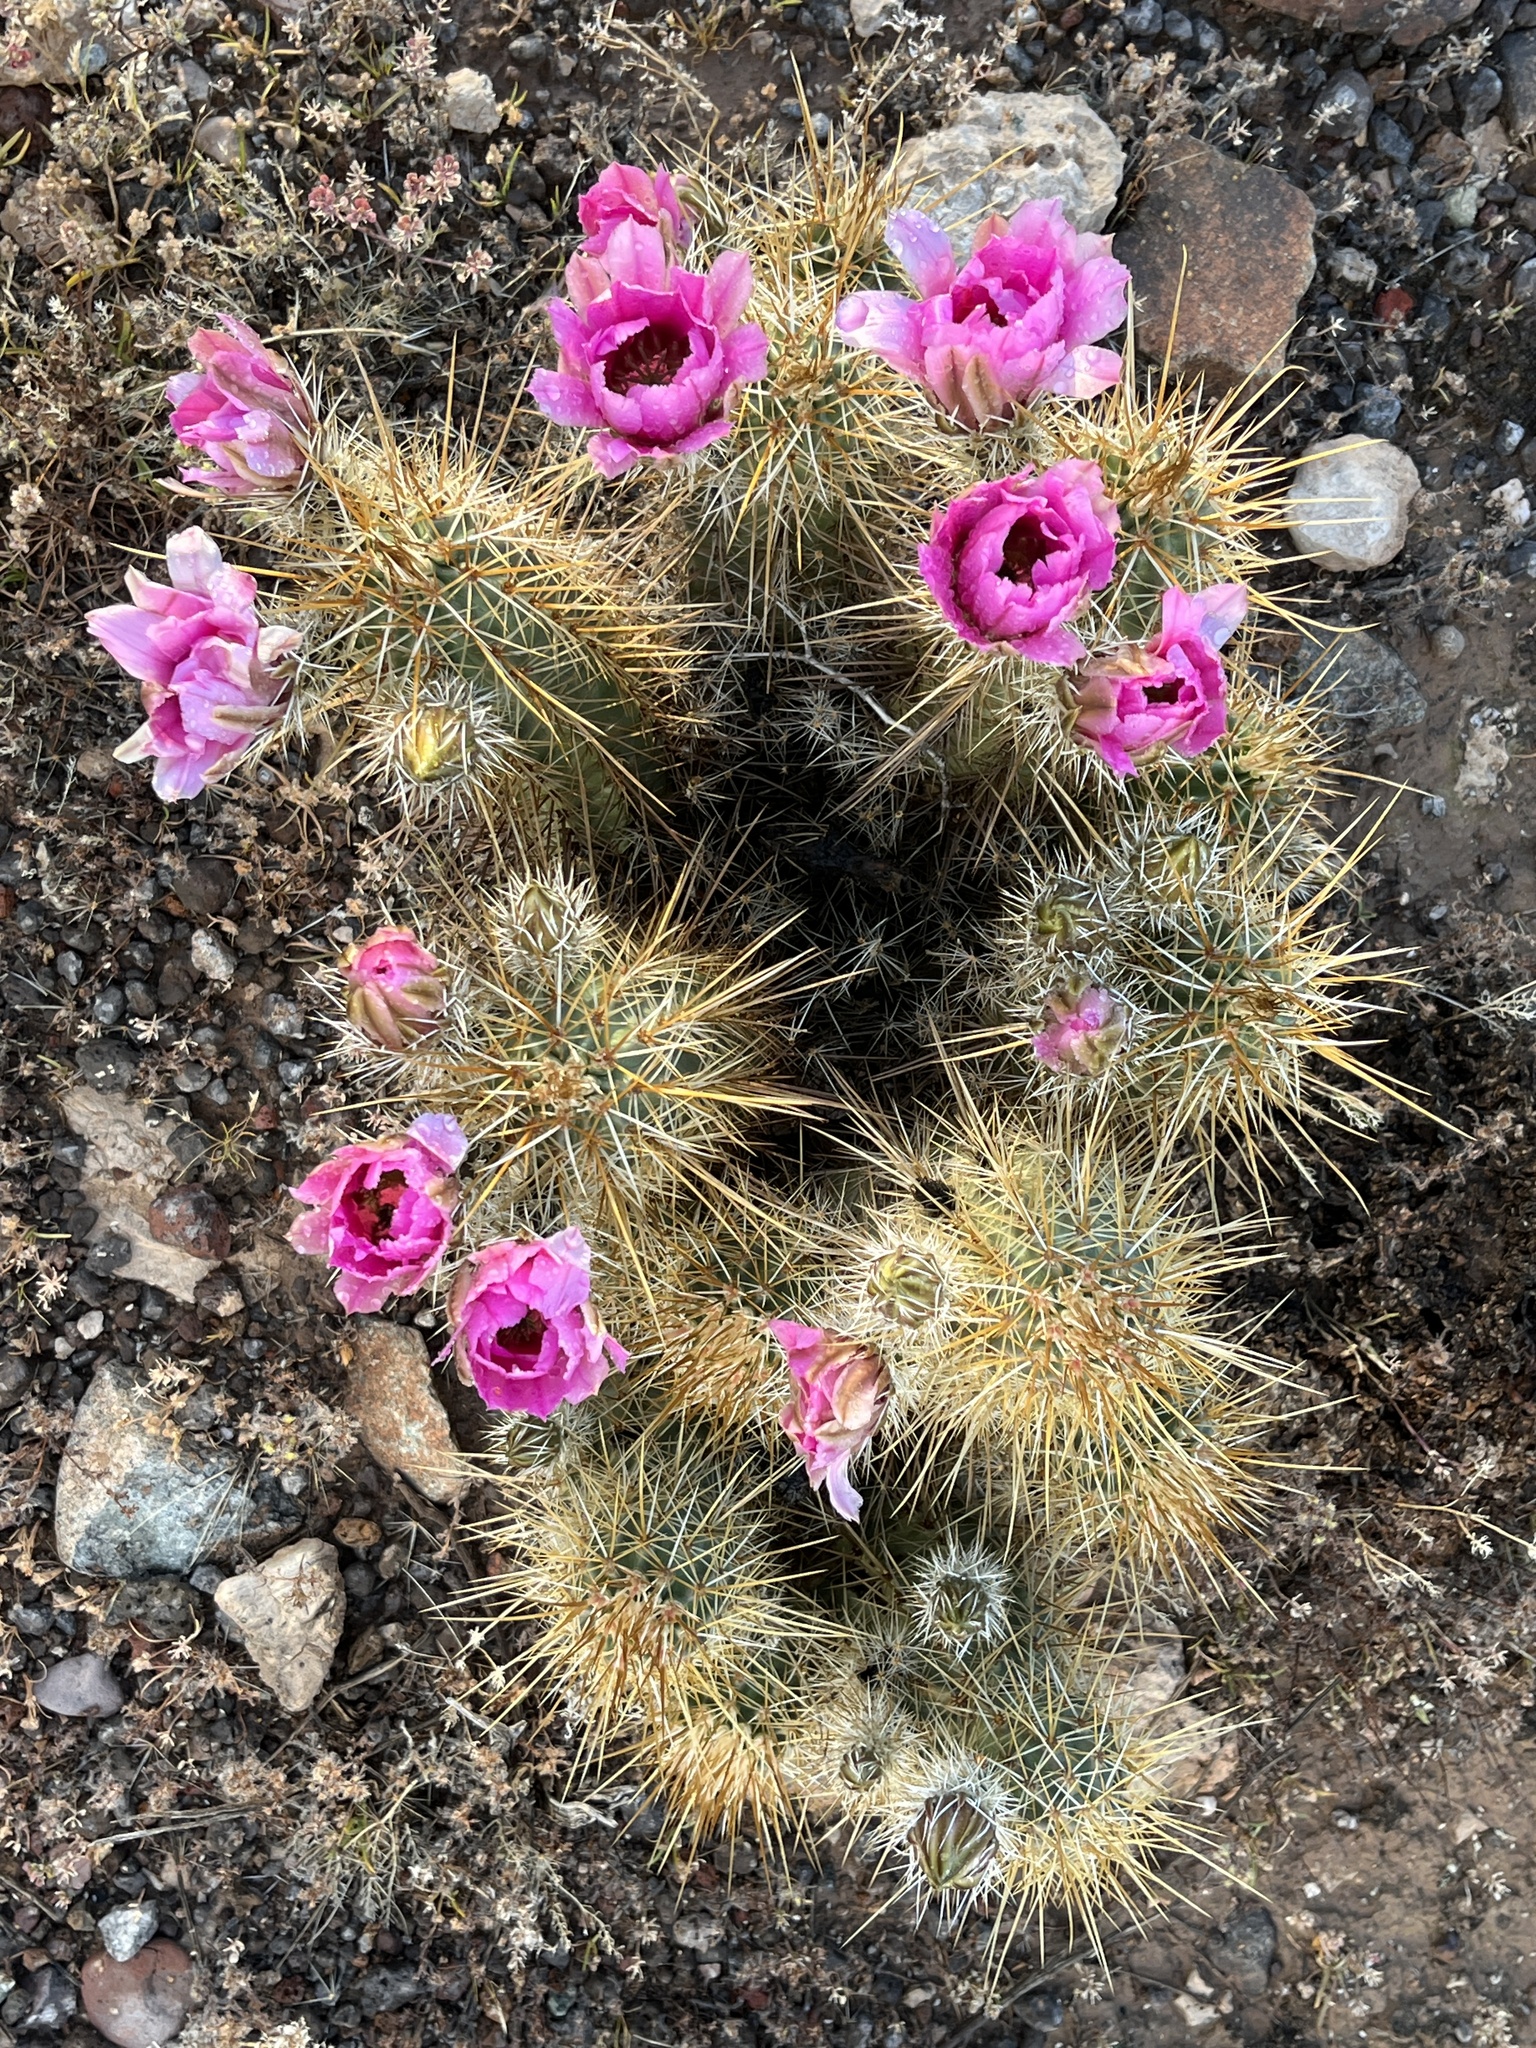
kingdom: Plantae
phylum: Tracheophyta
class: Magnoliopsida
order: Caryophyllales
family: Cactaceae
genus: Echinocereus
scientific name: Echinocereus engelmannii
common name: Engelmann's hedgehog cactus
